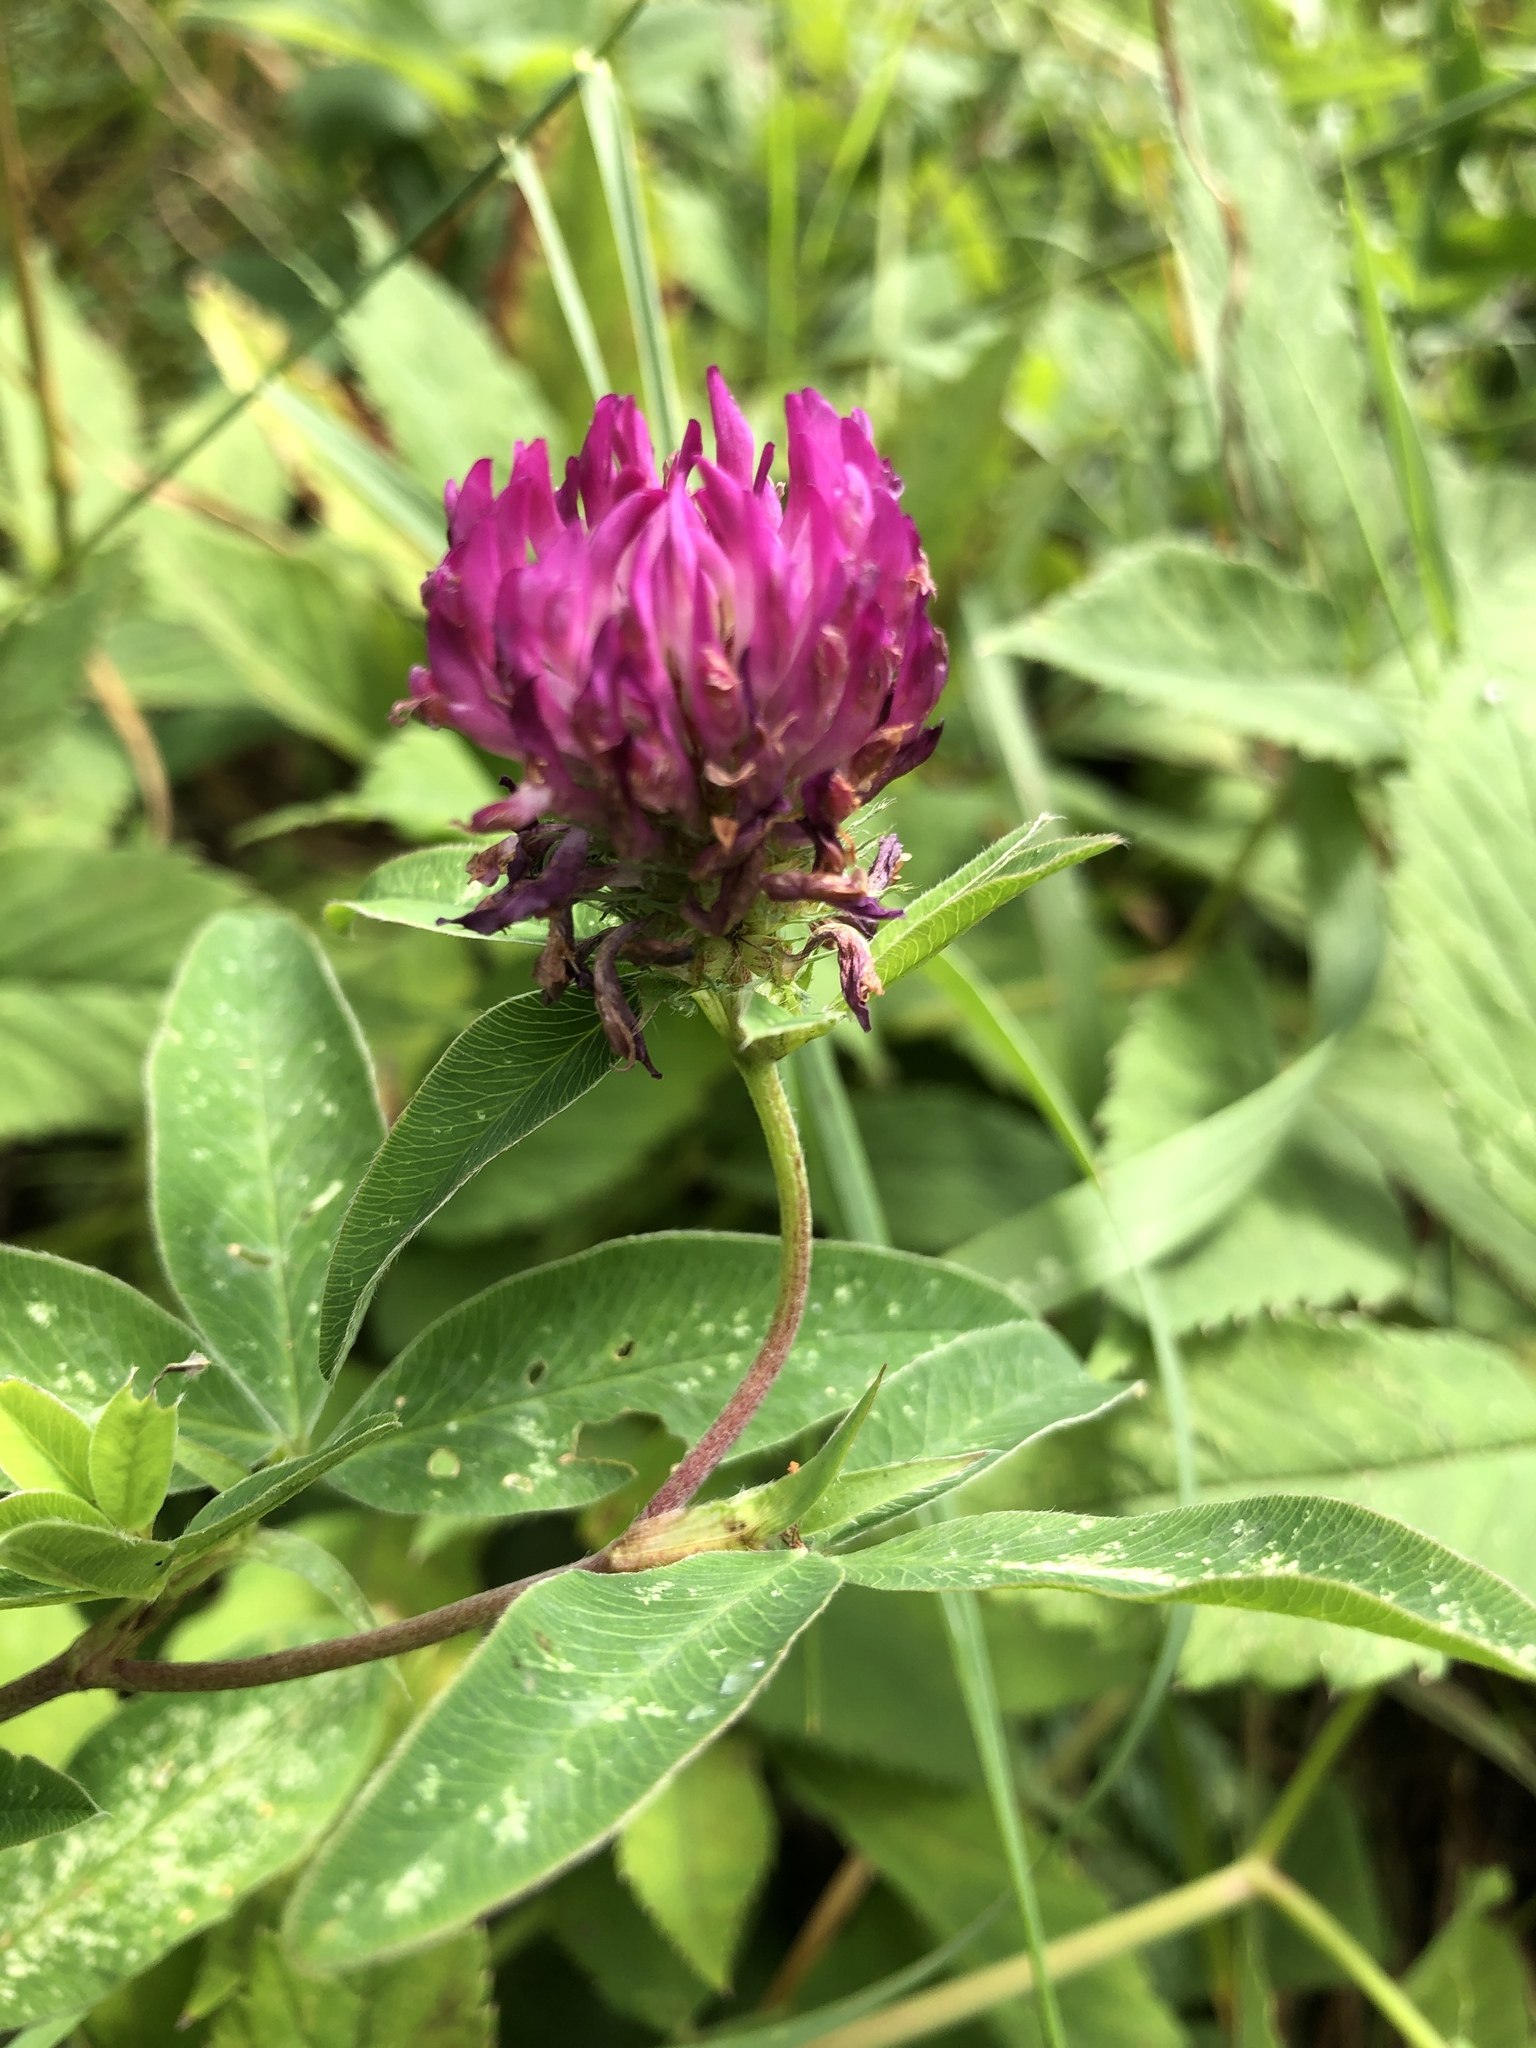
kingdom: Plantae
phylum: Tracheophyta
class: Magnoliopsida
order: Fabales
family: Fabaceae
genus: Trifolium
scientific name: Trifolium medium
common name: Zigzag clover
